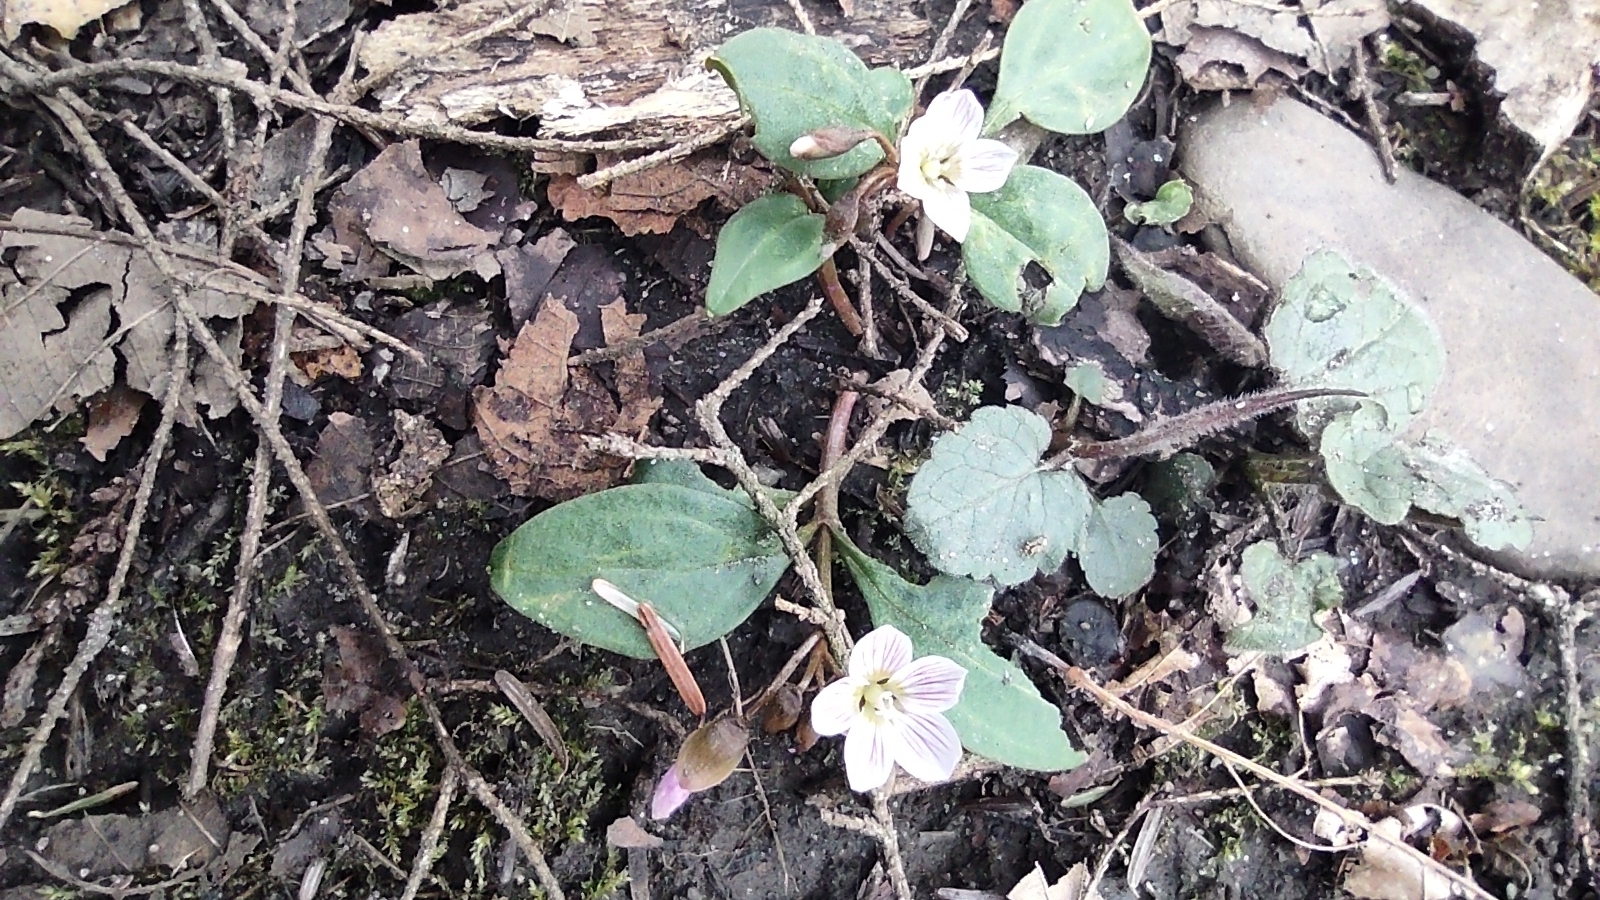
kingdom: Plantae
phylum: Tracheophyta
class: Magnoliopsida
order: Caryophyllales
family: Montiaceae
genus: Claytonia
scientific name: Claytonia caroliniana
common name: Carolina spring beauty
